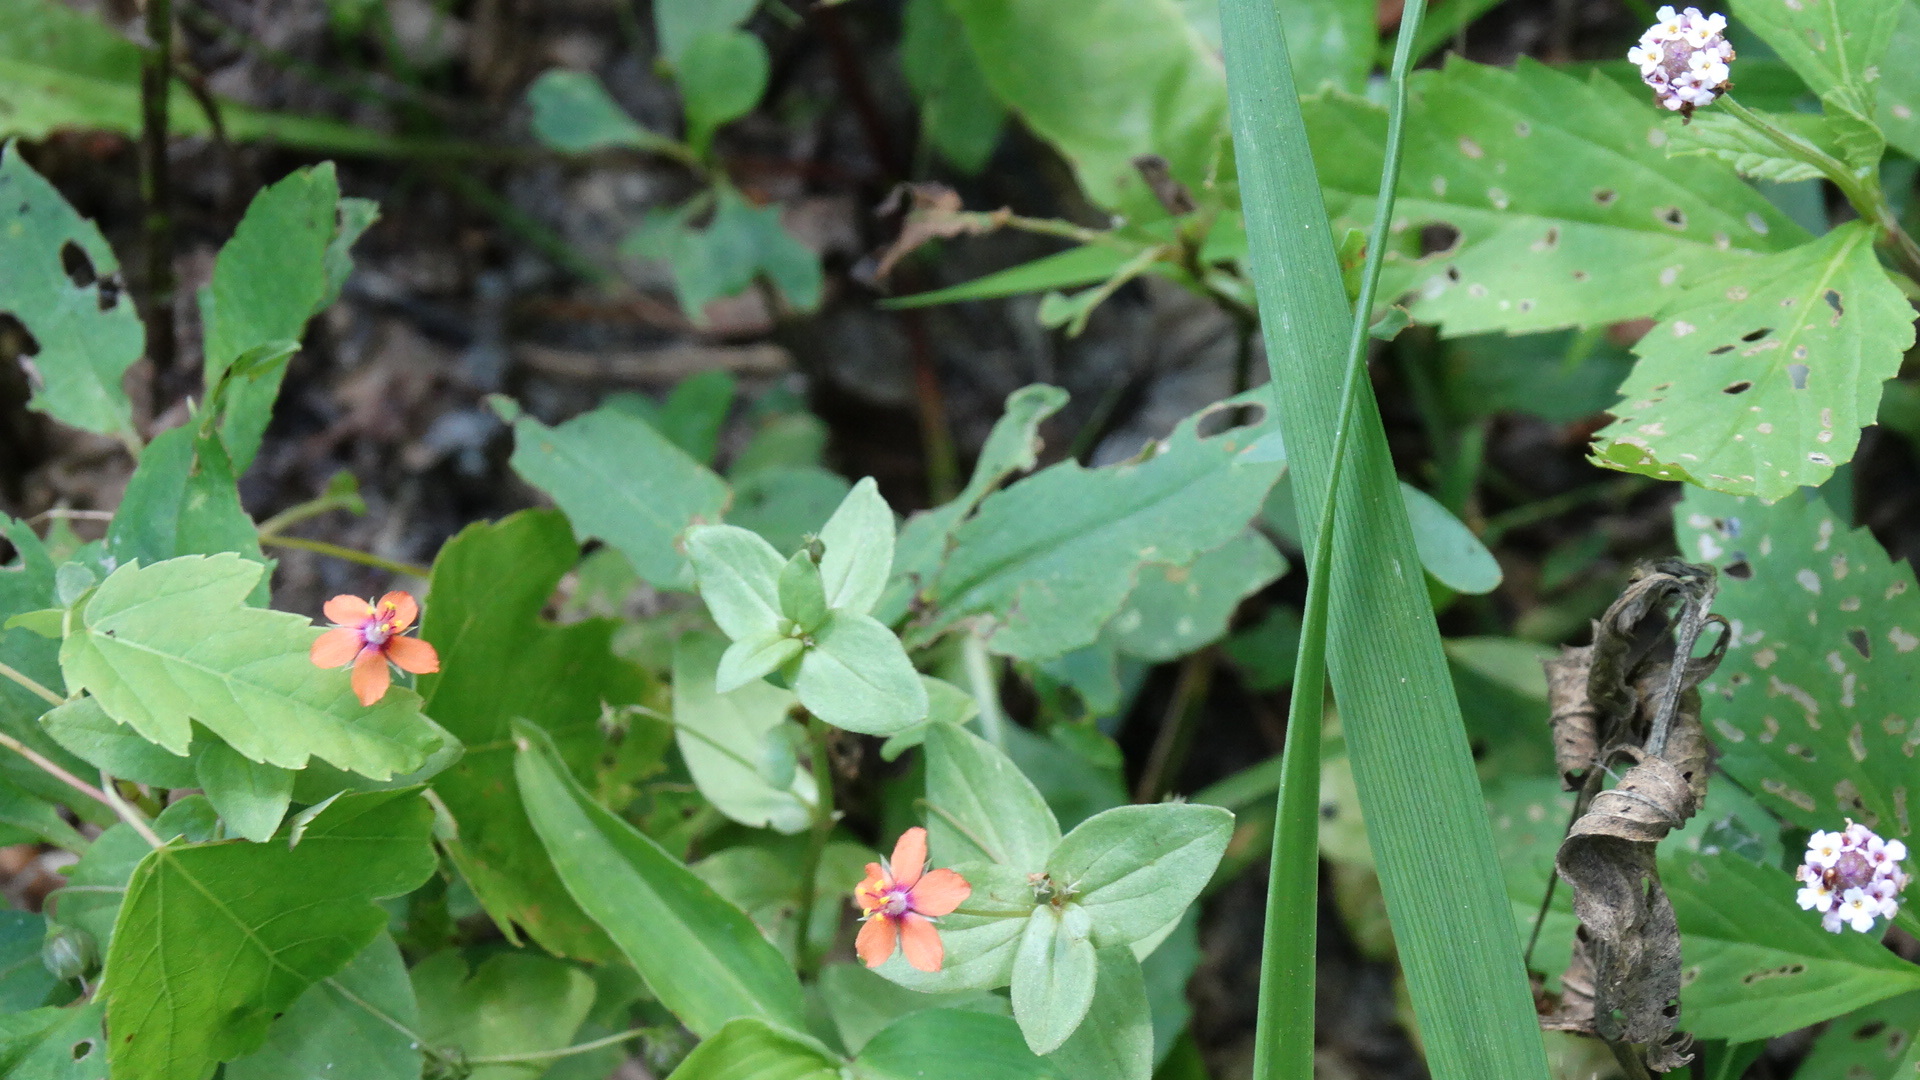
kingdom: Plantae
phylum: Tracheophyta
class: Magnoliopsida
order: Ericales
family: Primulaceae
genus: Lysimachia
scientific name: Lysimachia arvensis
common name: Scarlet pimpernel
